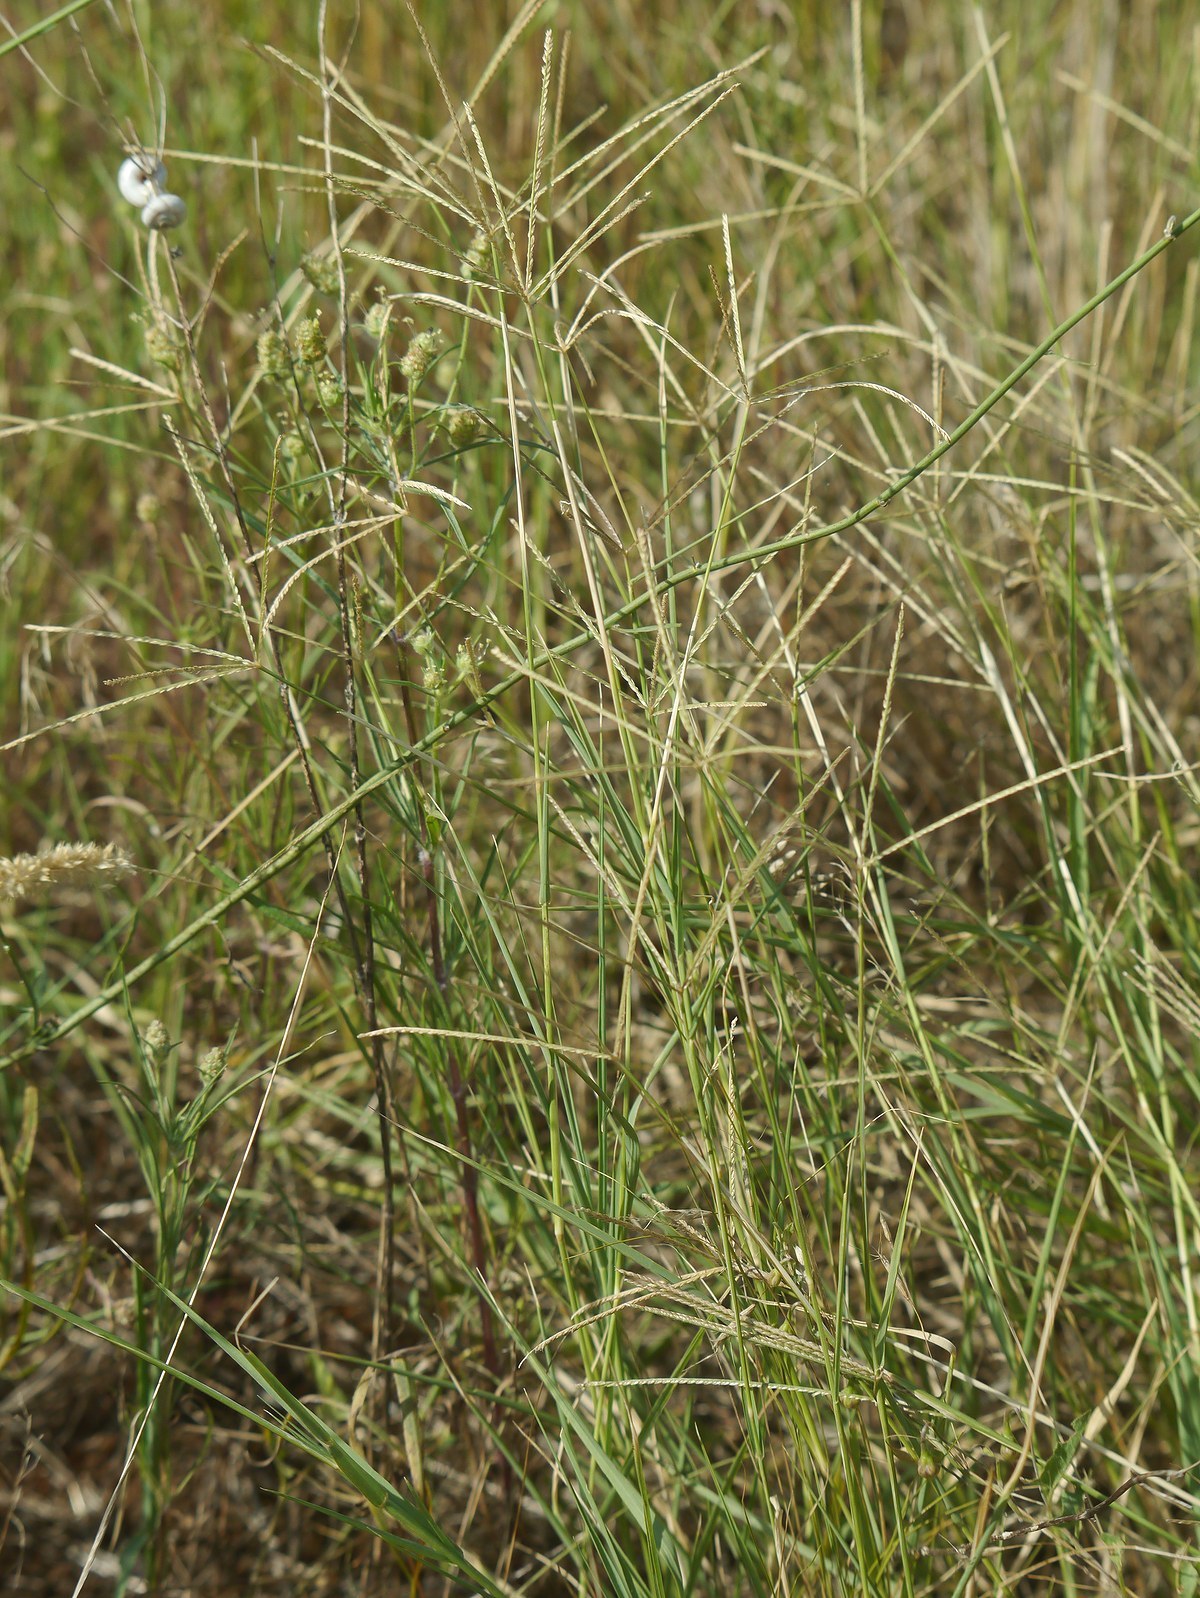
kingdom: Plantae
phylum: Tracheophyta
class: Liliopsida
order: Poales
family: Poaceae
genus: Cynodon
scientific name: Cynodon dactylon
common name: Bermuda grass
